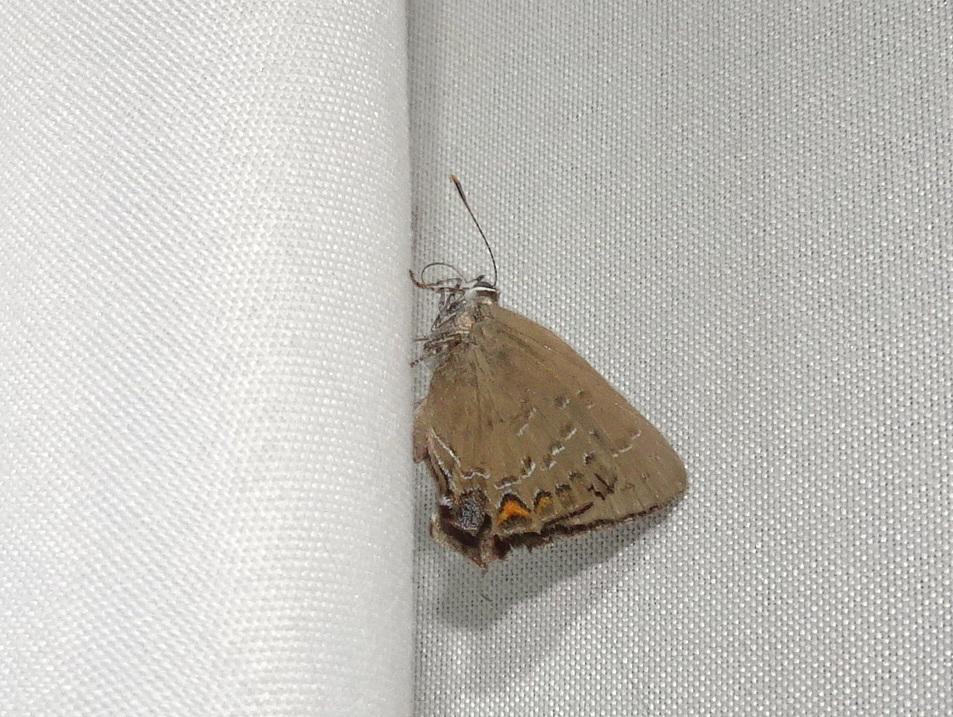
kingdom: Animalia
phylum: Arthropoda
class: Insecta
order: Lepidoptera
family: Lycaenidae
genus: Satyrium
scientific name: Satyrium calanus
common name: Banded hairstreak
